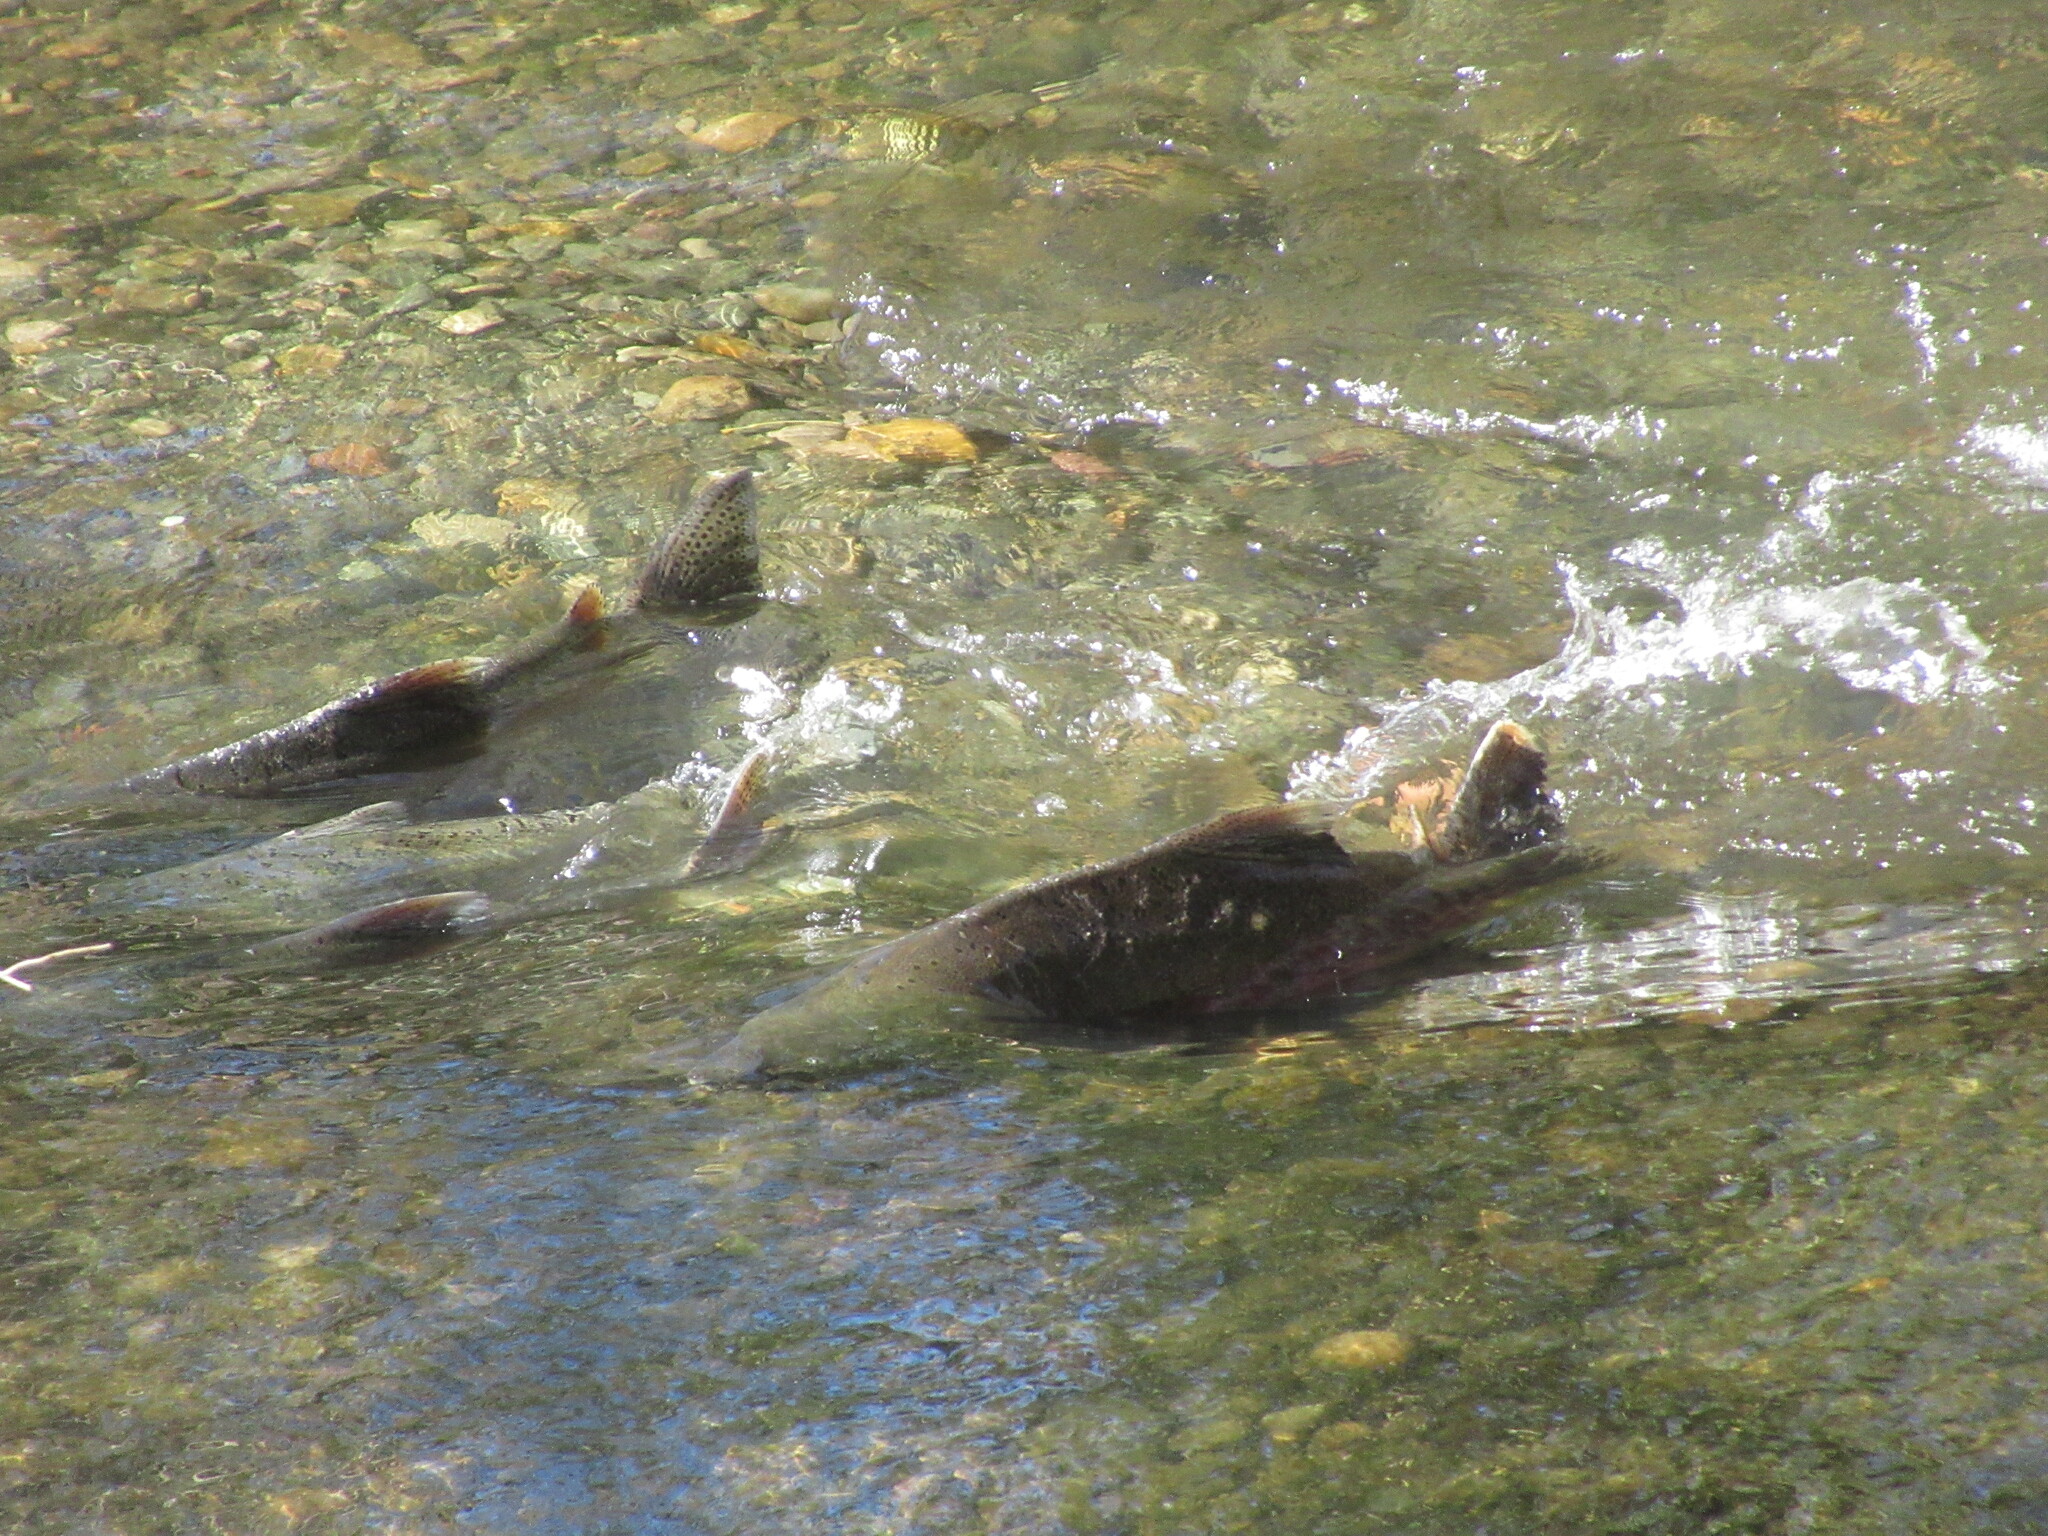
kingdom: Animalia
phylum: Chordata
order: Salmoniformes
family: Salmonidae
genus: Oncorhynchus
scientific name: Oncorhynchus tshawytscha
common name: Chinook salmon
